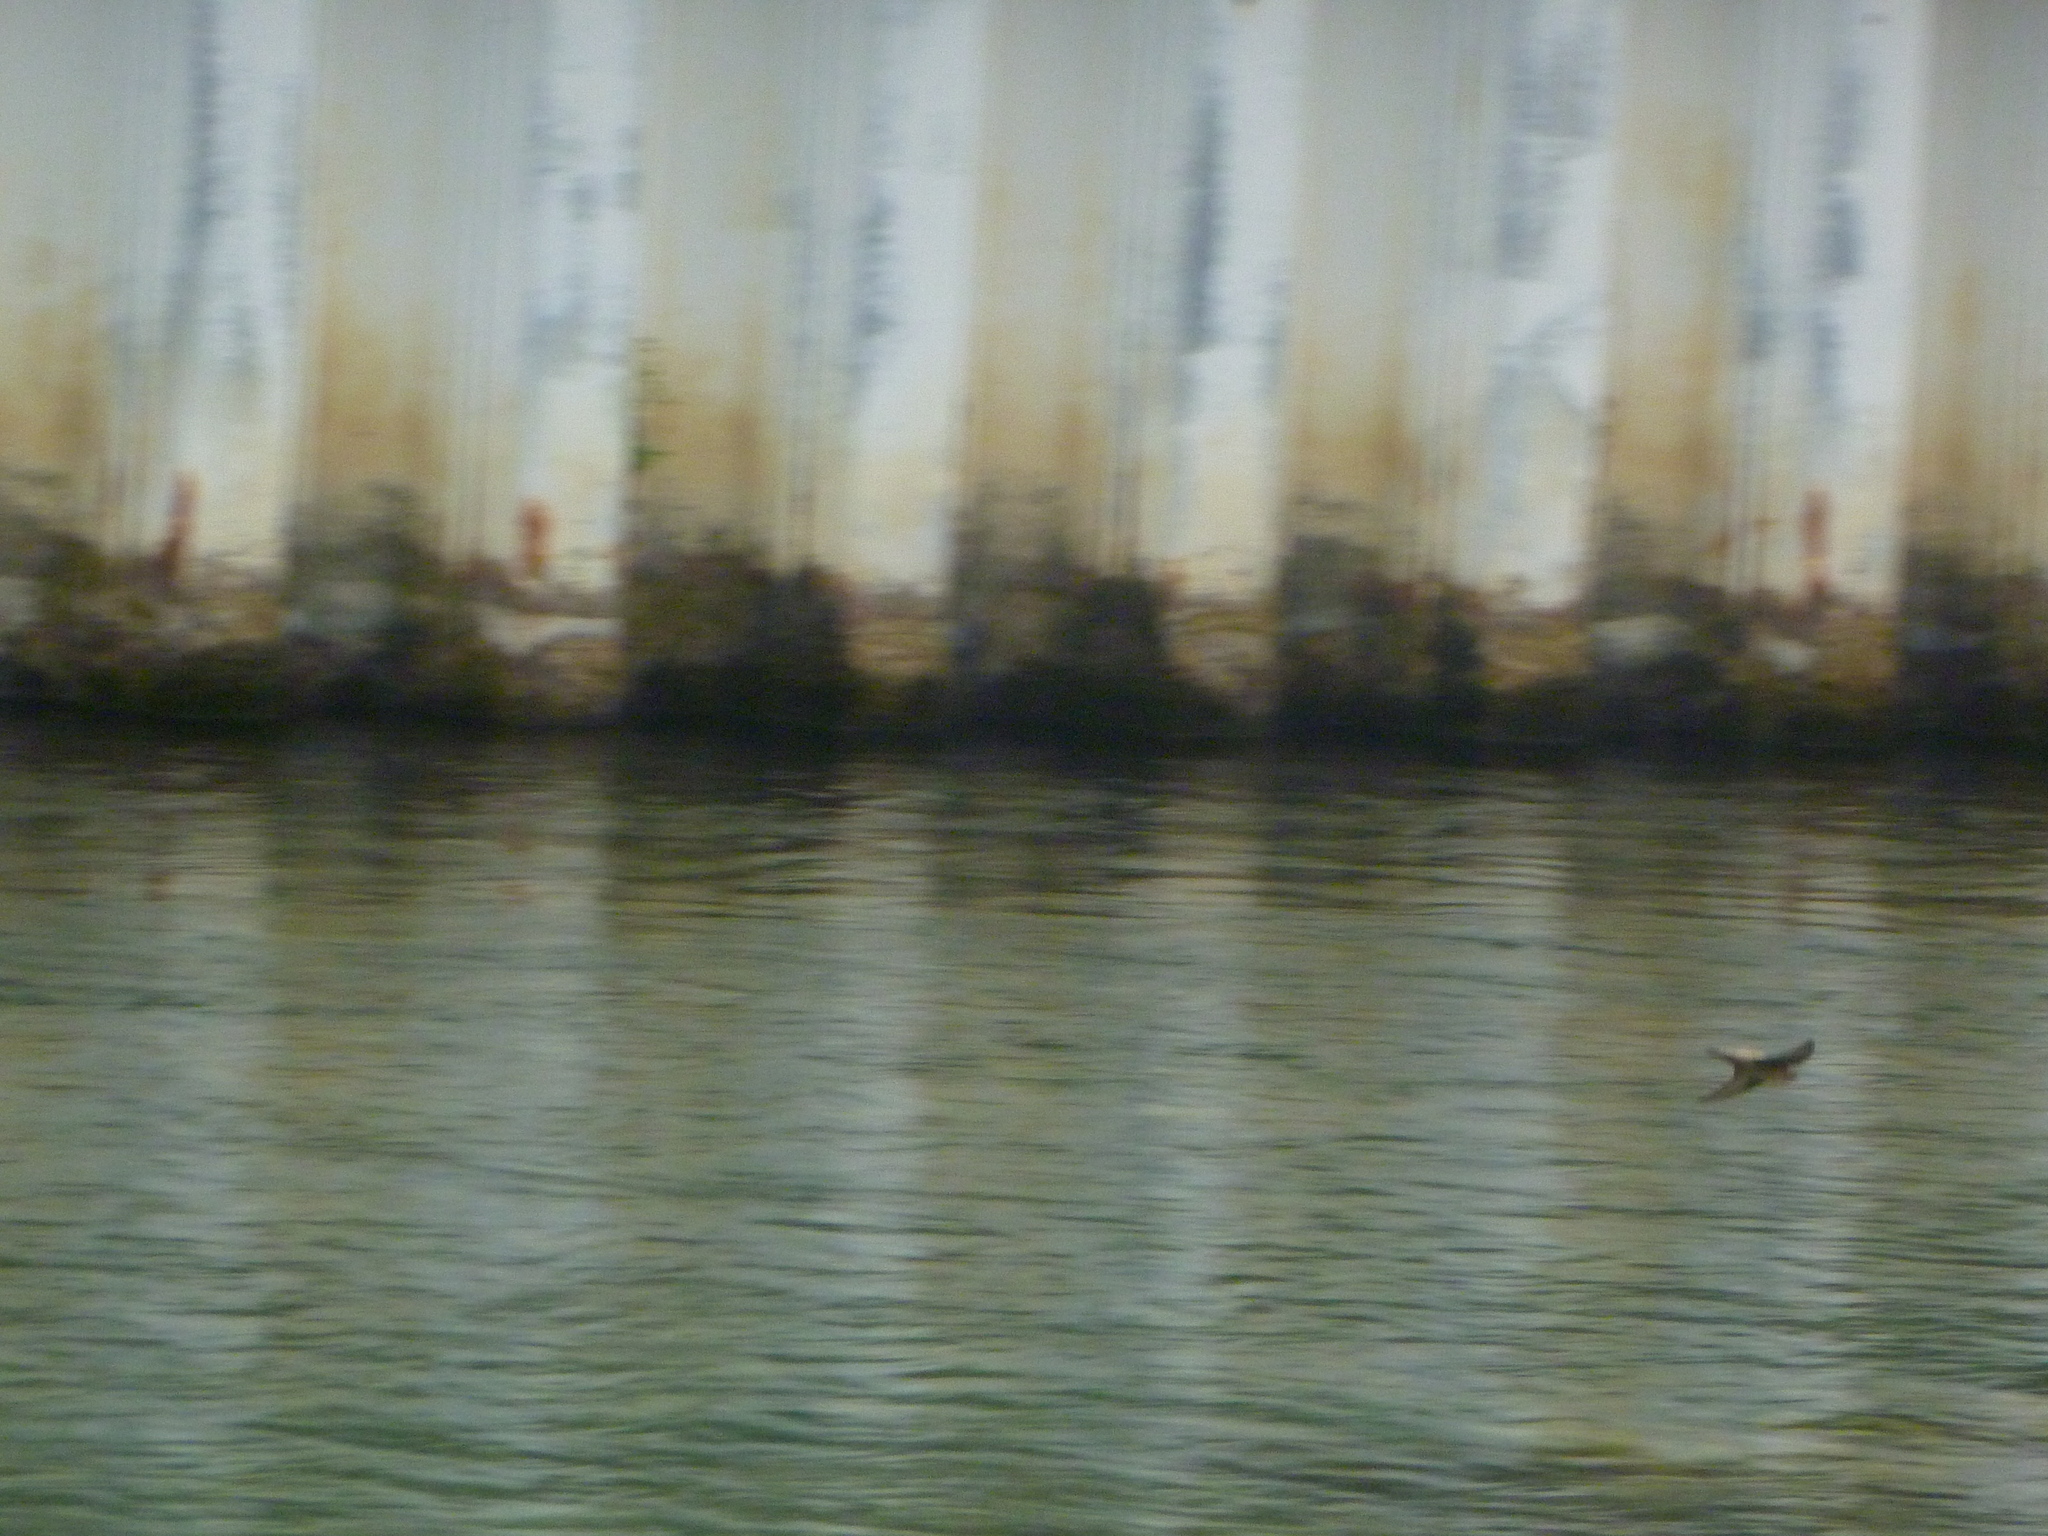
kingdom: Animalia
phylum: Chordata
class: Aves
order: Passeriformes
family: Hirundinidae
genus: Ptyonoprogne
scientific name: Ptyonoprogne rupestris
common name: Eurasian crag martin
